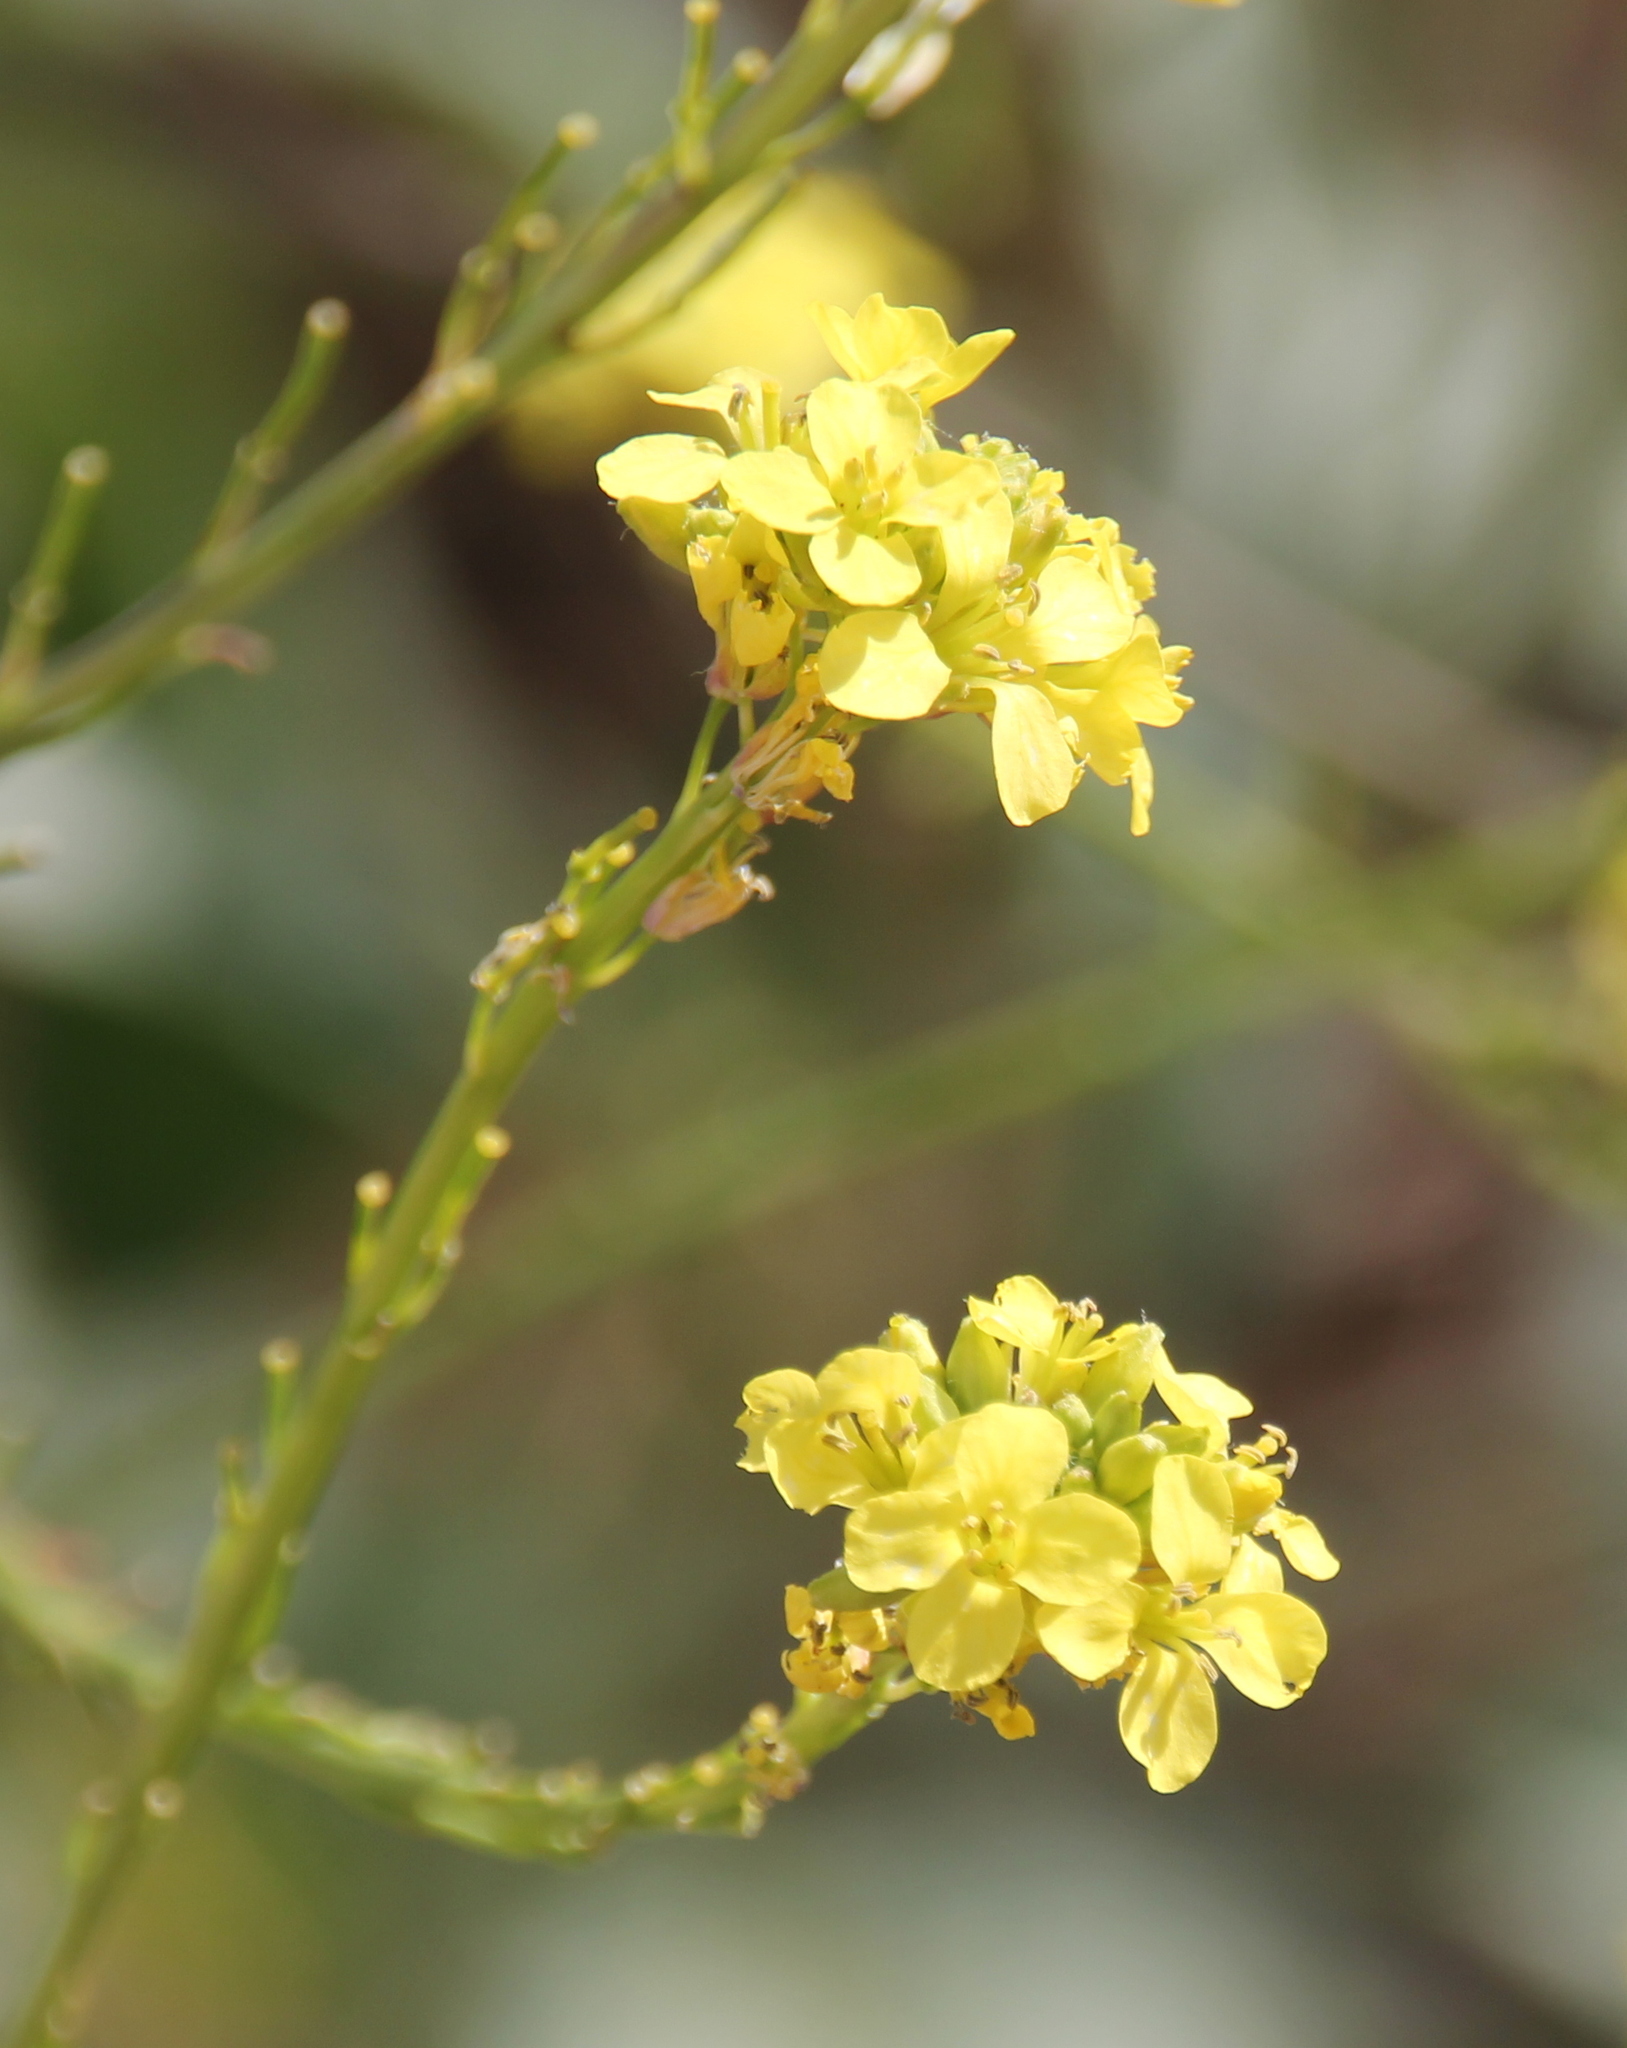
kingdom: Plantae
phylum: Tracheophyta
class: Magnoliopsida
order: Brassicales
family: Brassicaceae
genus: Hirschfeldia
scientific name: Hirschfeldia incana
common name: Hoary mustard
